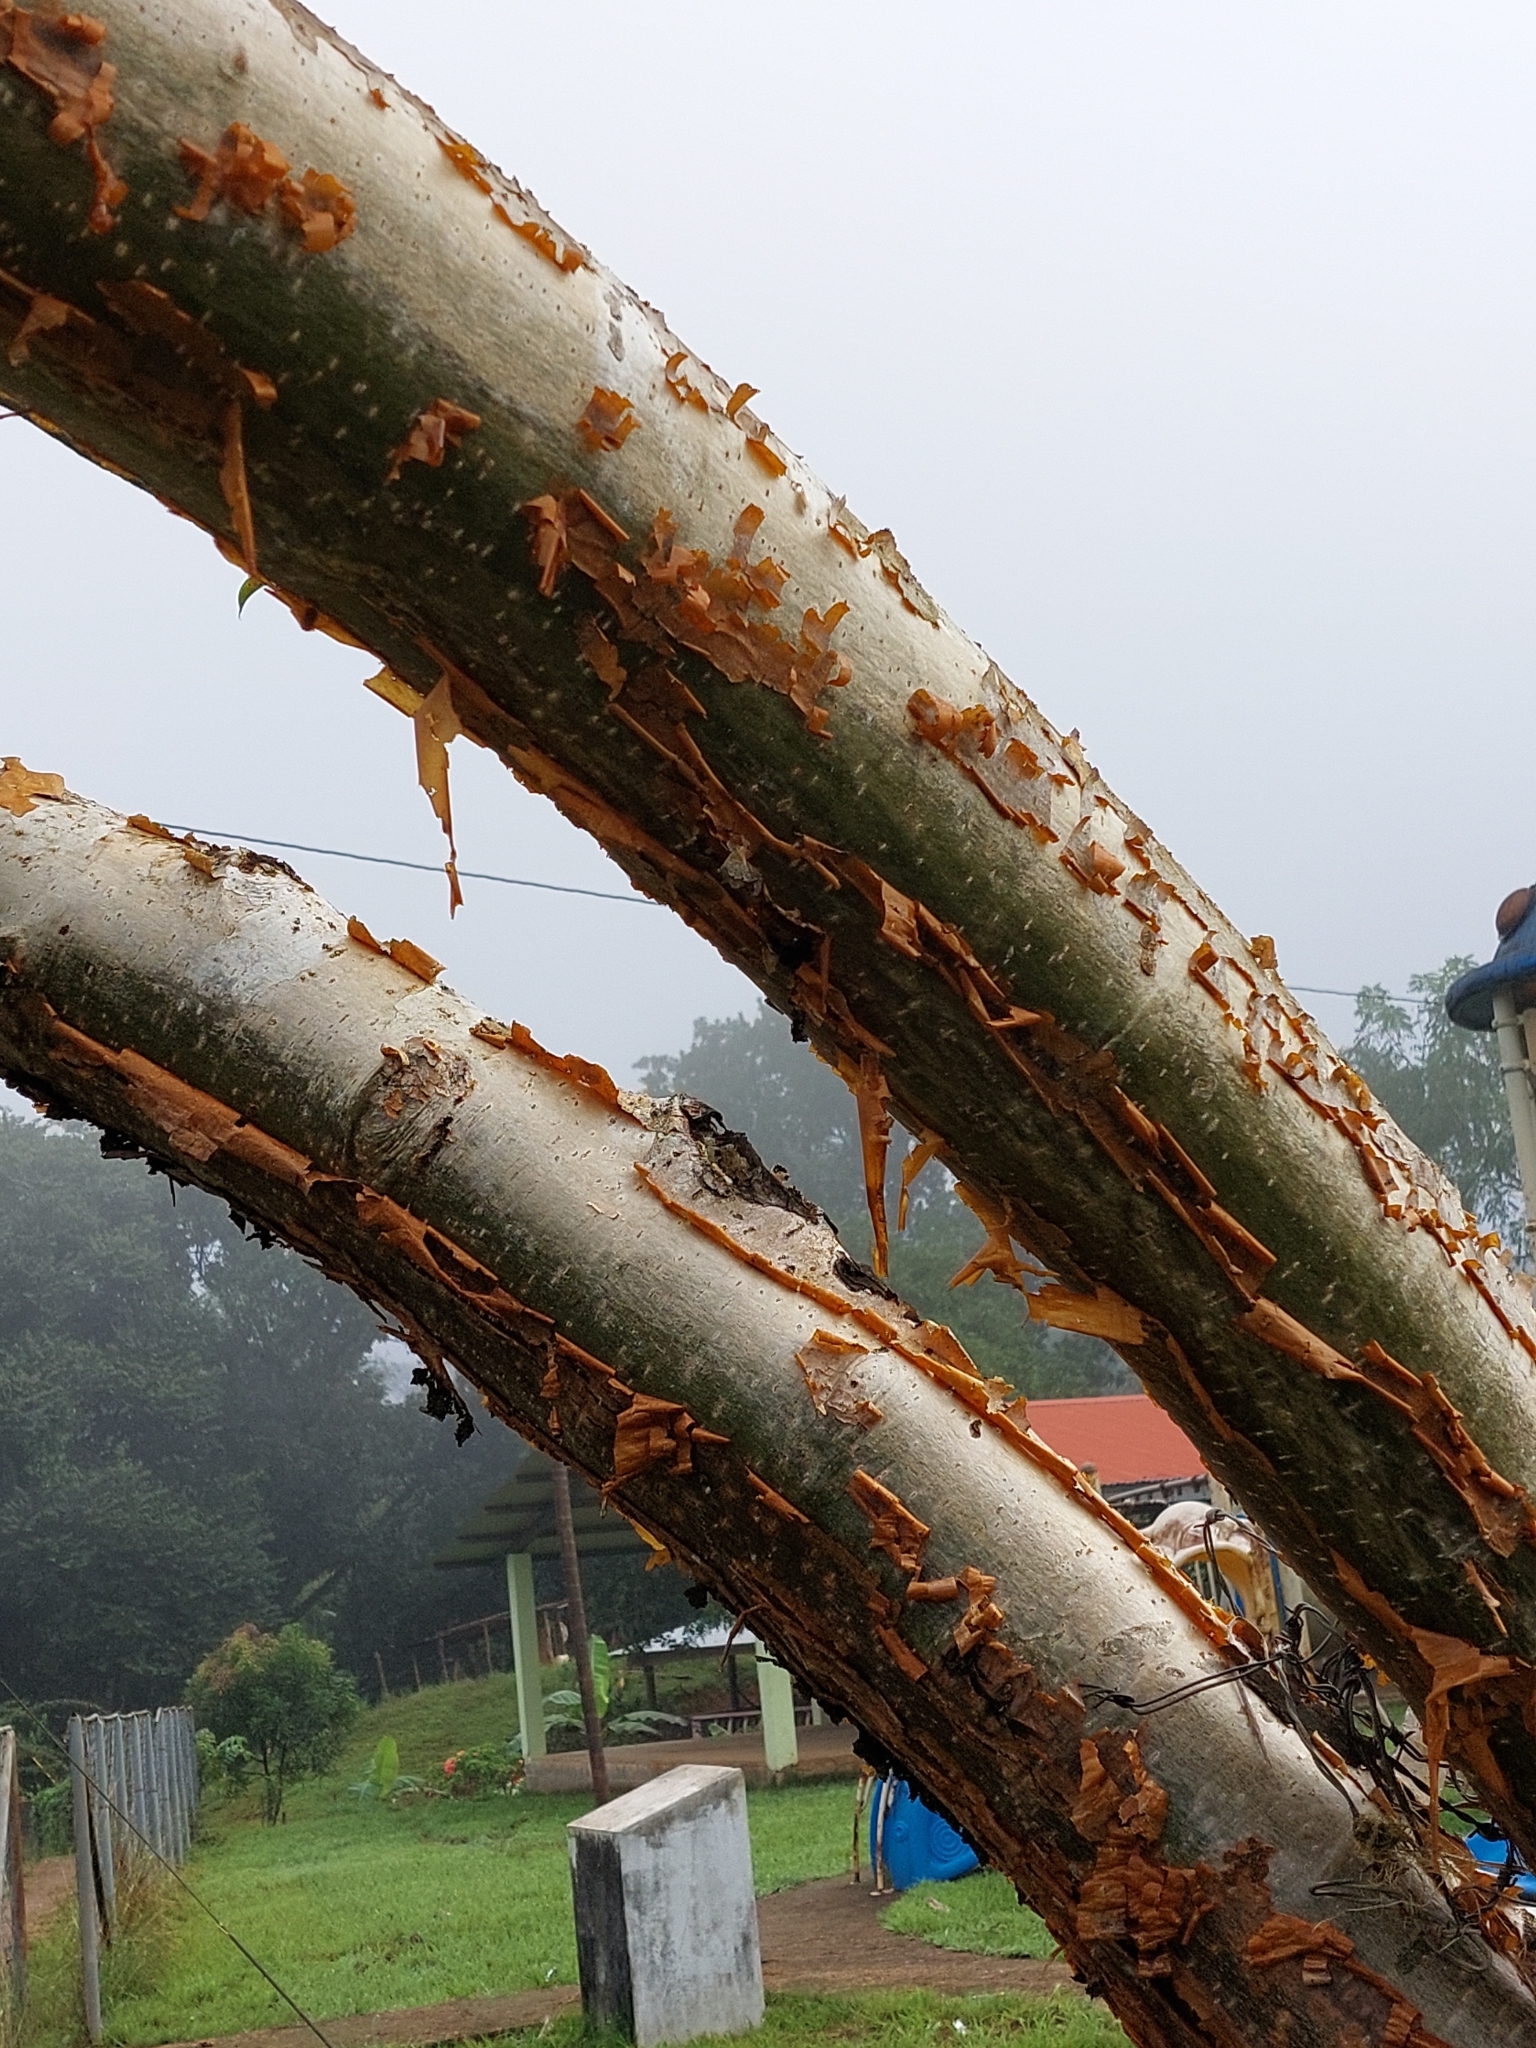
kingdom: Plantae
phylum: Tracheophyta
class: Magnoliopsida
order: Sapindales
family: Burseraceae
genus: Bursera
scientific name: Bursera simaruba
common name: Turpentine tree
